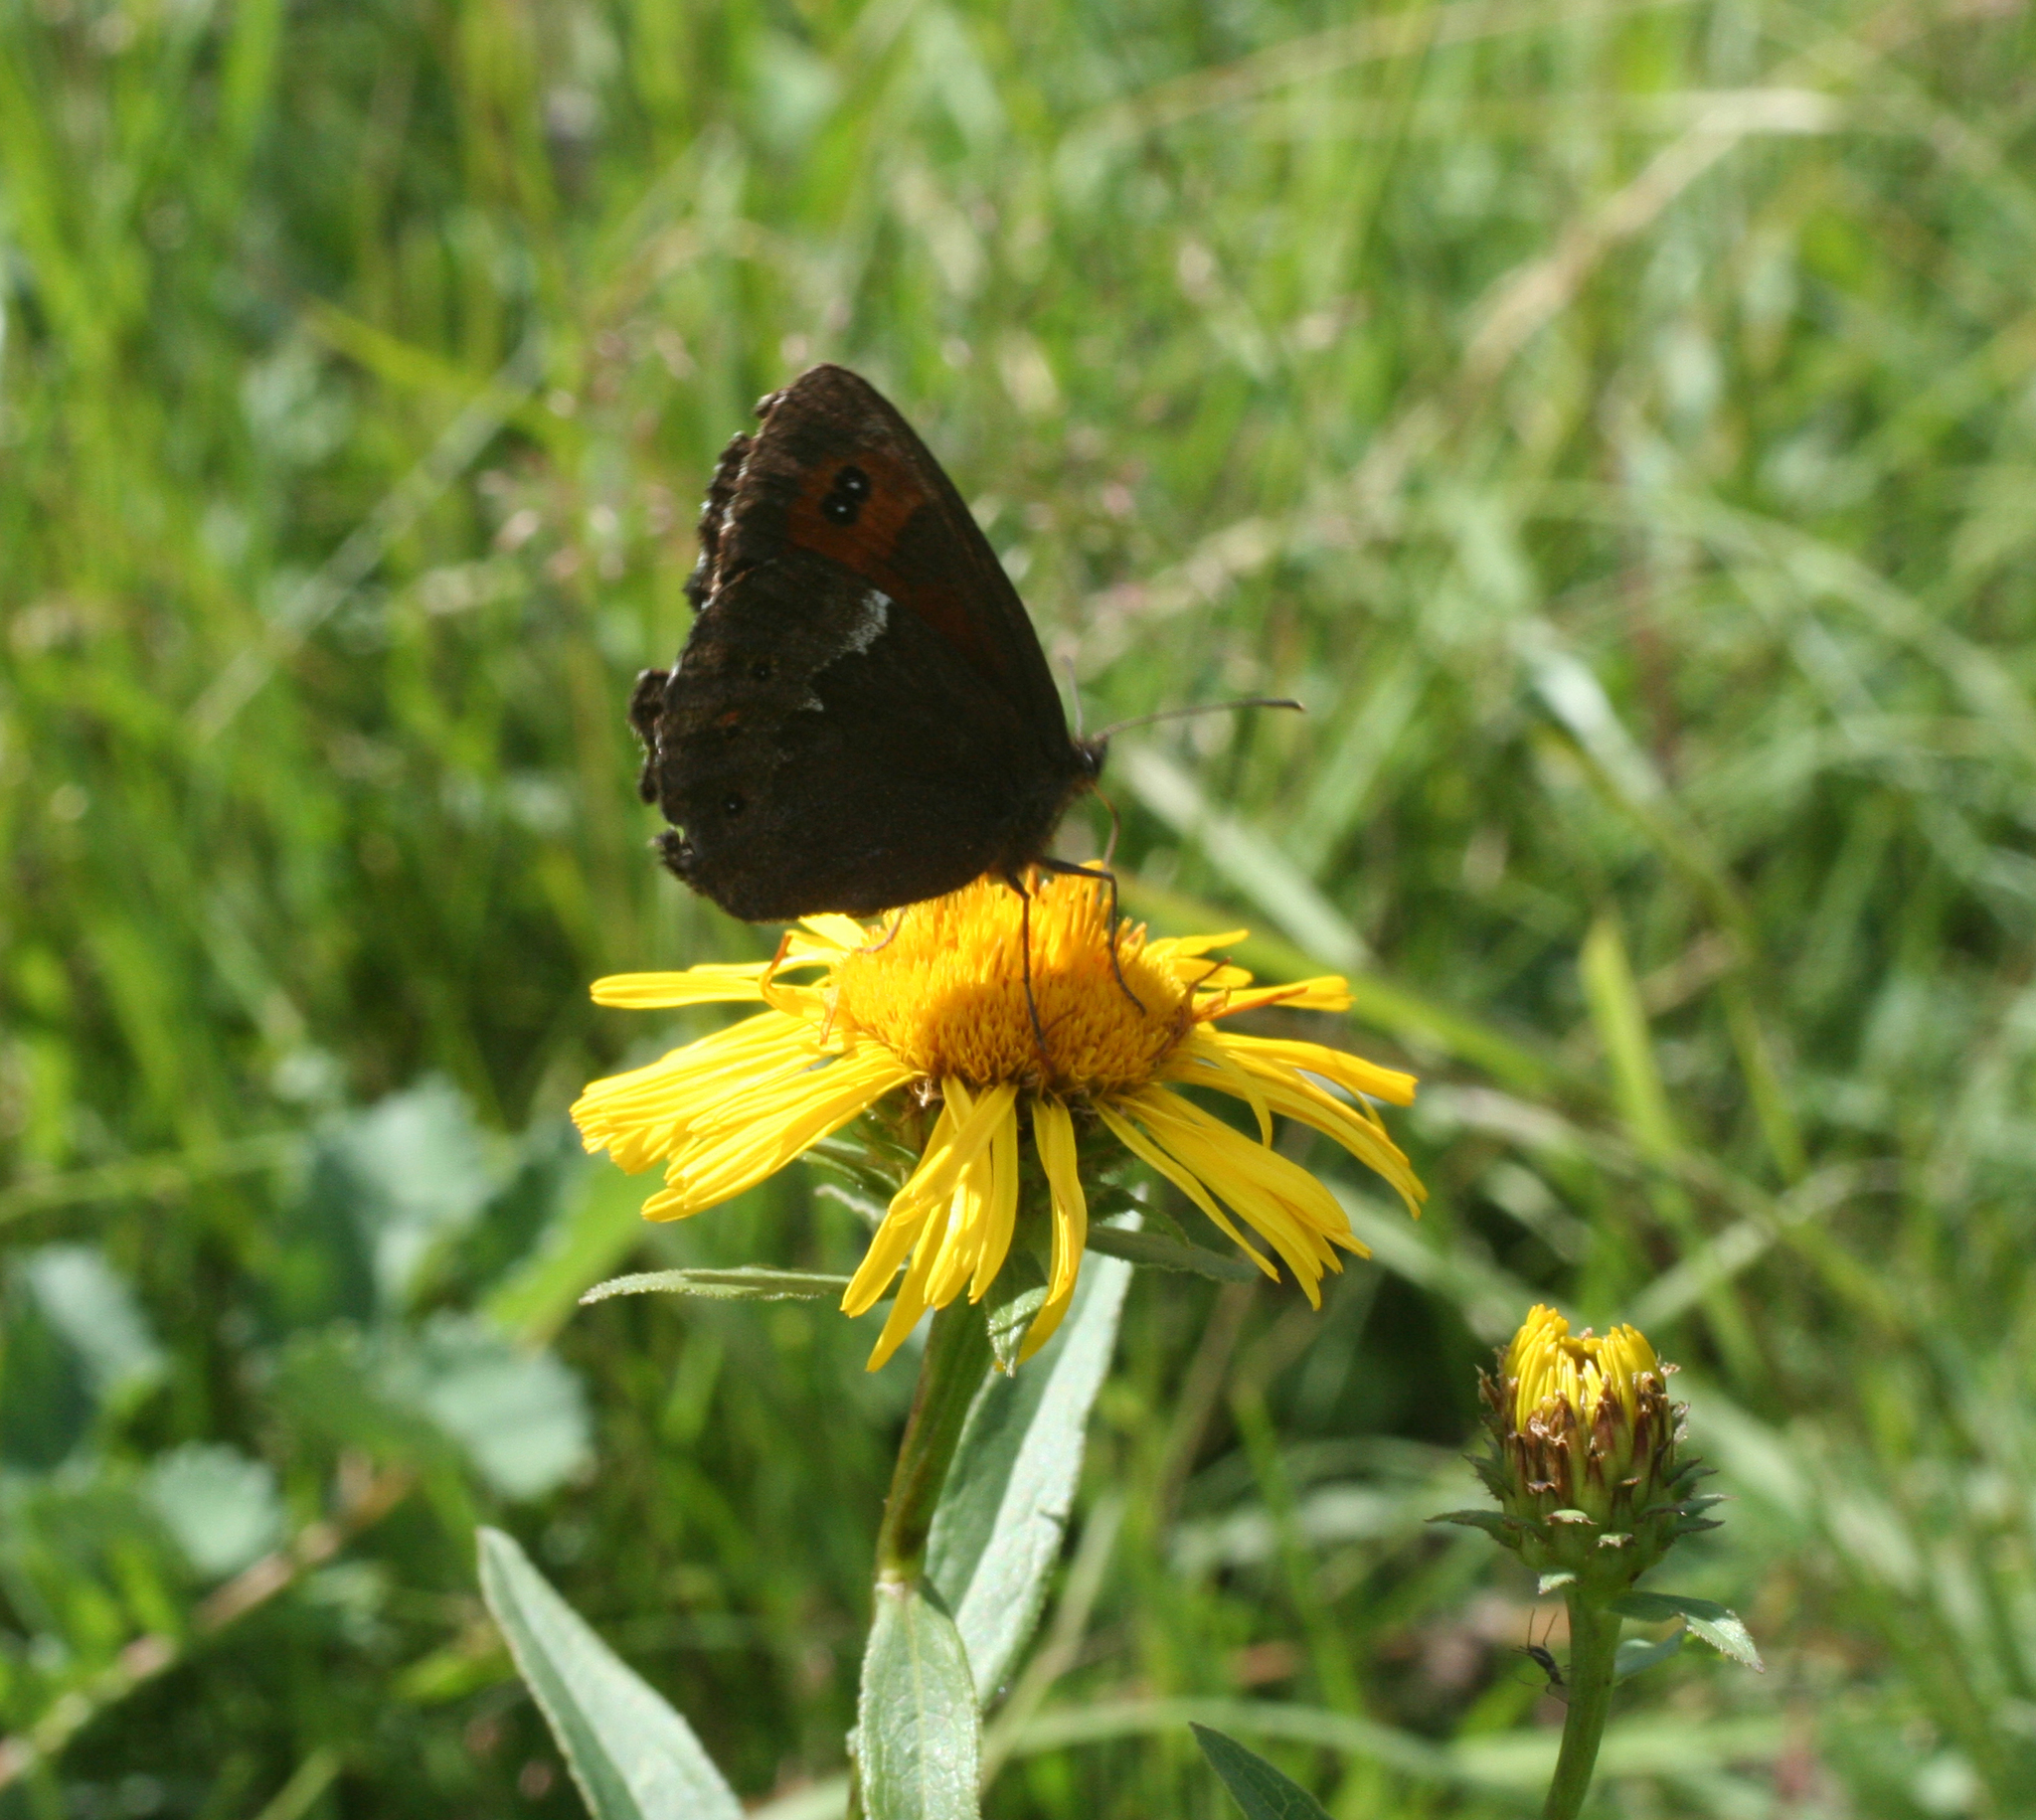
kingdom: Plantae
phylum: Tracheophyta
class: Magnoliopsida
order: Asterales
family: Asteraceae
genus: Pentanema
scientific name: Pentanema salicinum
